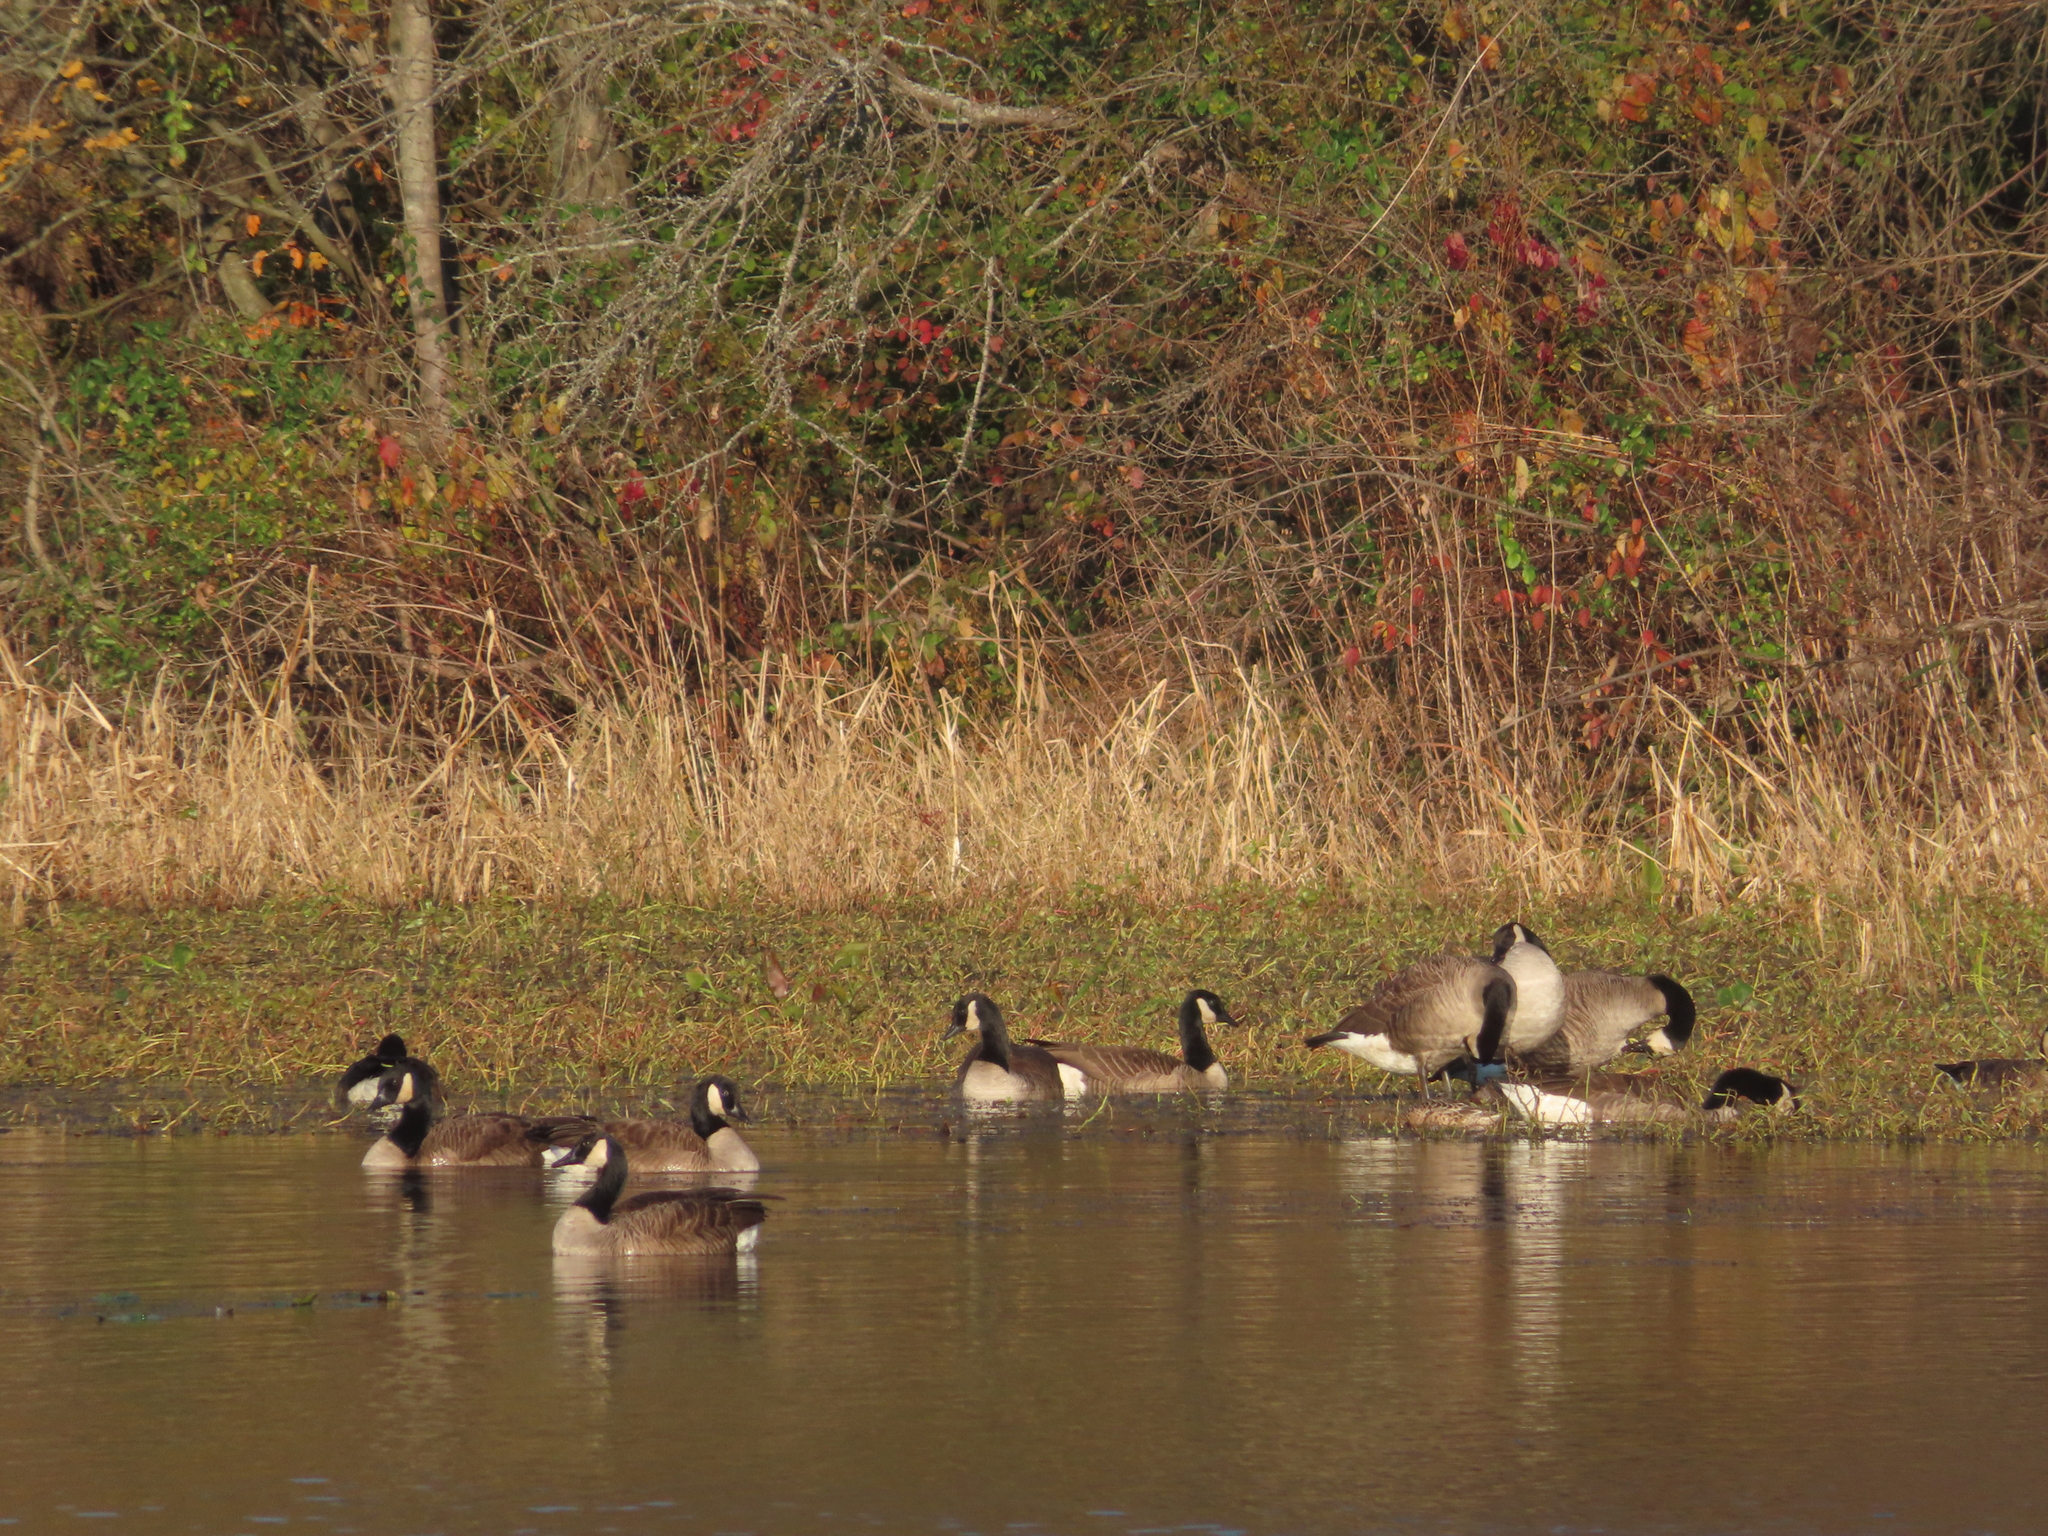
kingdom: Animalia
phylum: Chordata
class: Aves
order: Anseriformes
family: Anatidae
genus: Branta
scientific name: Branta canadensis
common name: Canada goose
